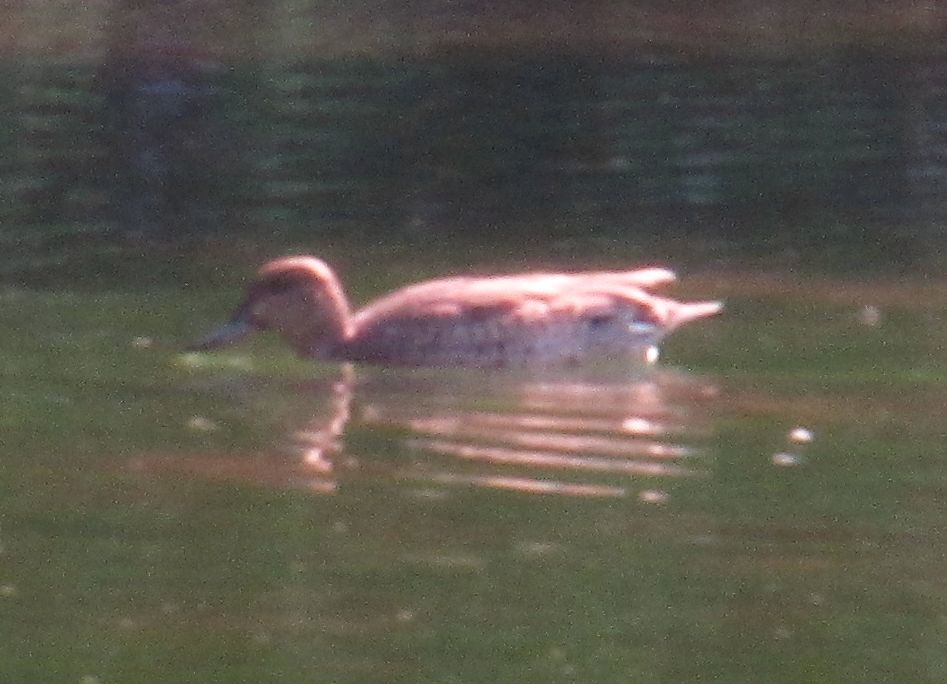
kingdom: Animalia
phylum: Chordata
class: Aves
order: Anseriformes
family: Anatidae
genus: Anas
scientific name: Anas crecca
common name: Eurasian teal
